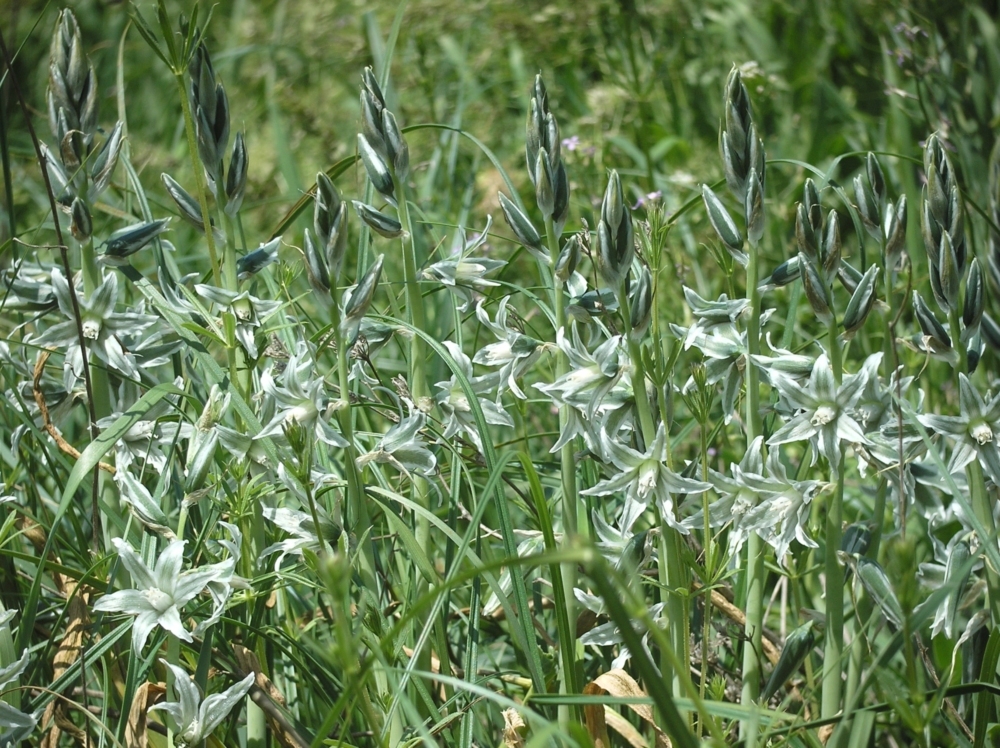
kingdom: Plantae
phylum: Tracheophyta
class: Liliopsida
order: Asparagales
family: Asparagaceae
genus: Ornithogalum
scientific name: Ornithogalum boucheanum
